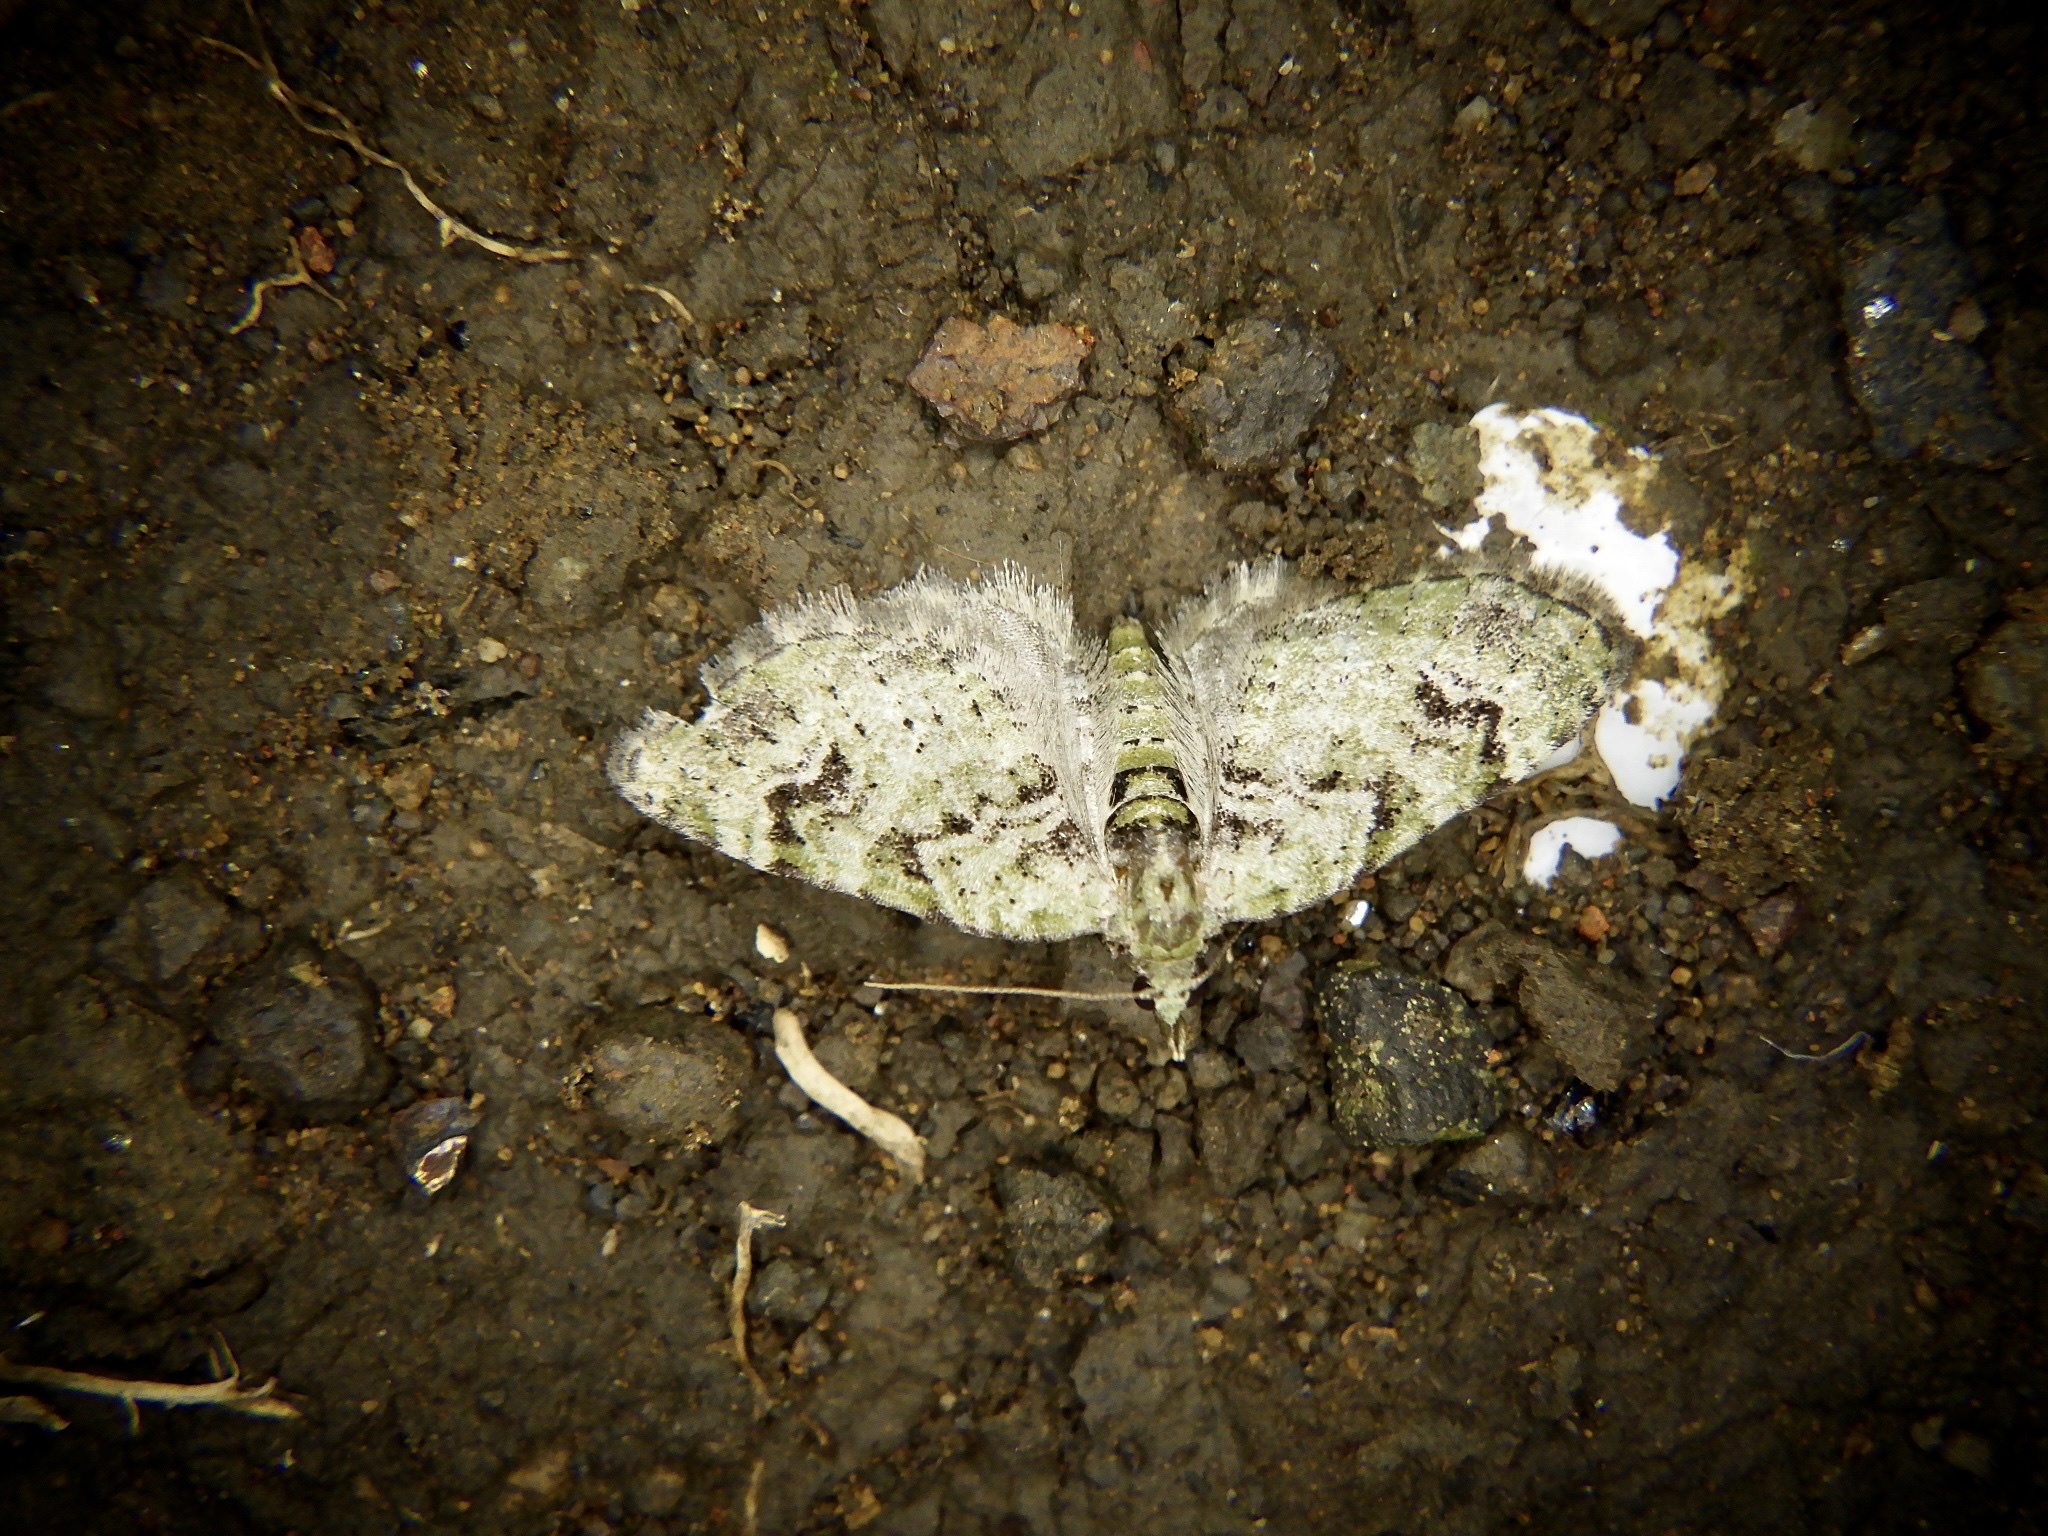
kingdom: Animalia
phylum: Arthropoda
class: Insecta
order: Lepidoptera
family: Geometridae
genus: Chloroclystis
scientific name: Chloroclystis v-ata
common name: V-pug
